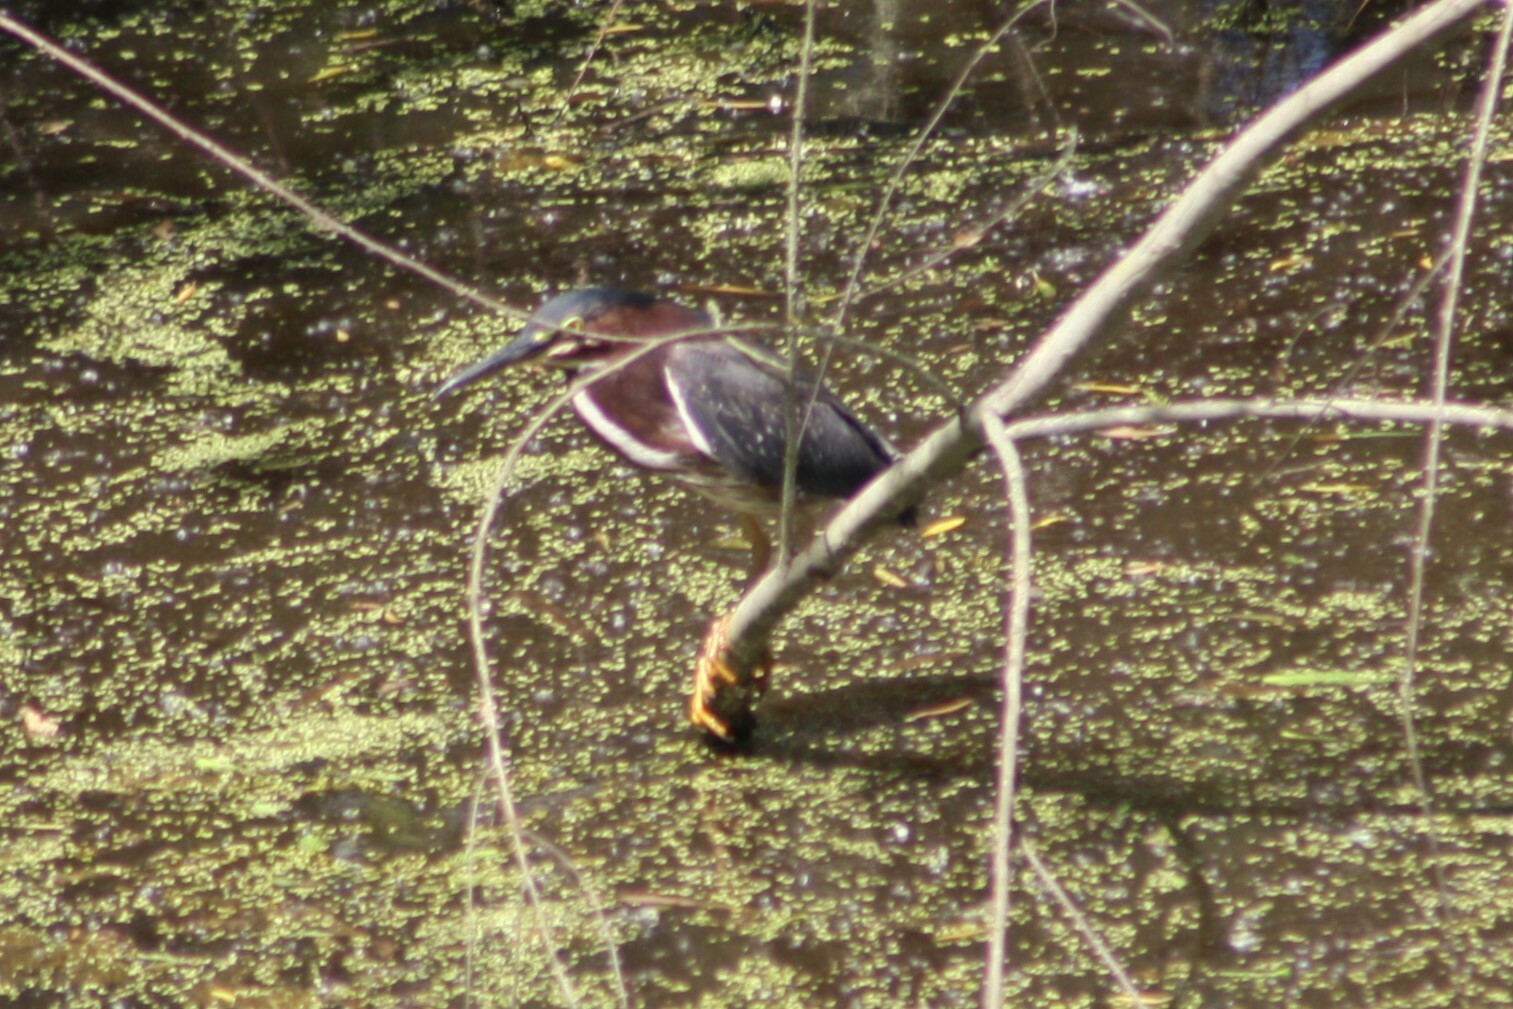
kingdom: Animalia
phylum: Chordata
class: Aves
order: Pelecaniformes
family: Ardeidae
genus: Butorides
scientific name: Butorides virescens
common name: Green heron
